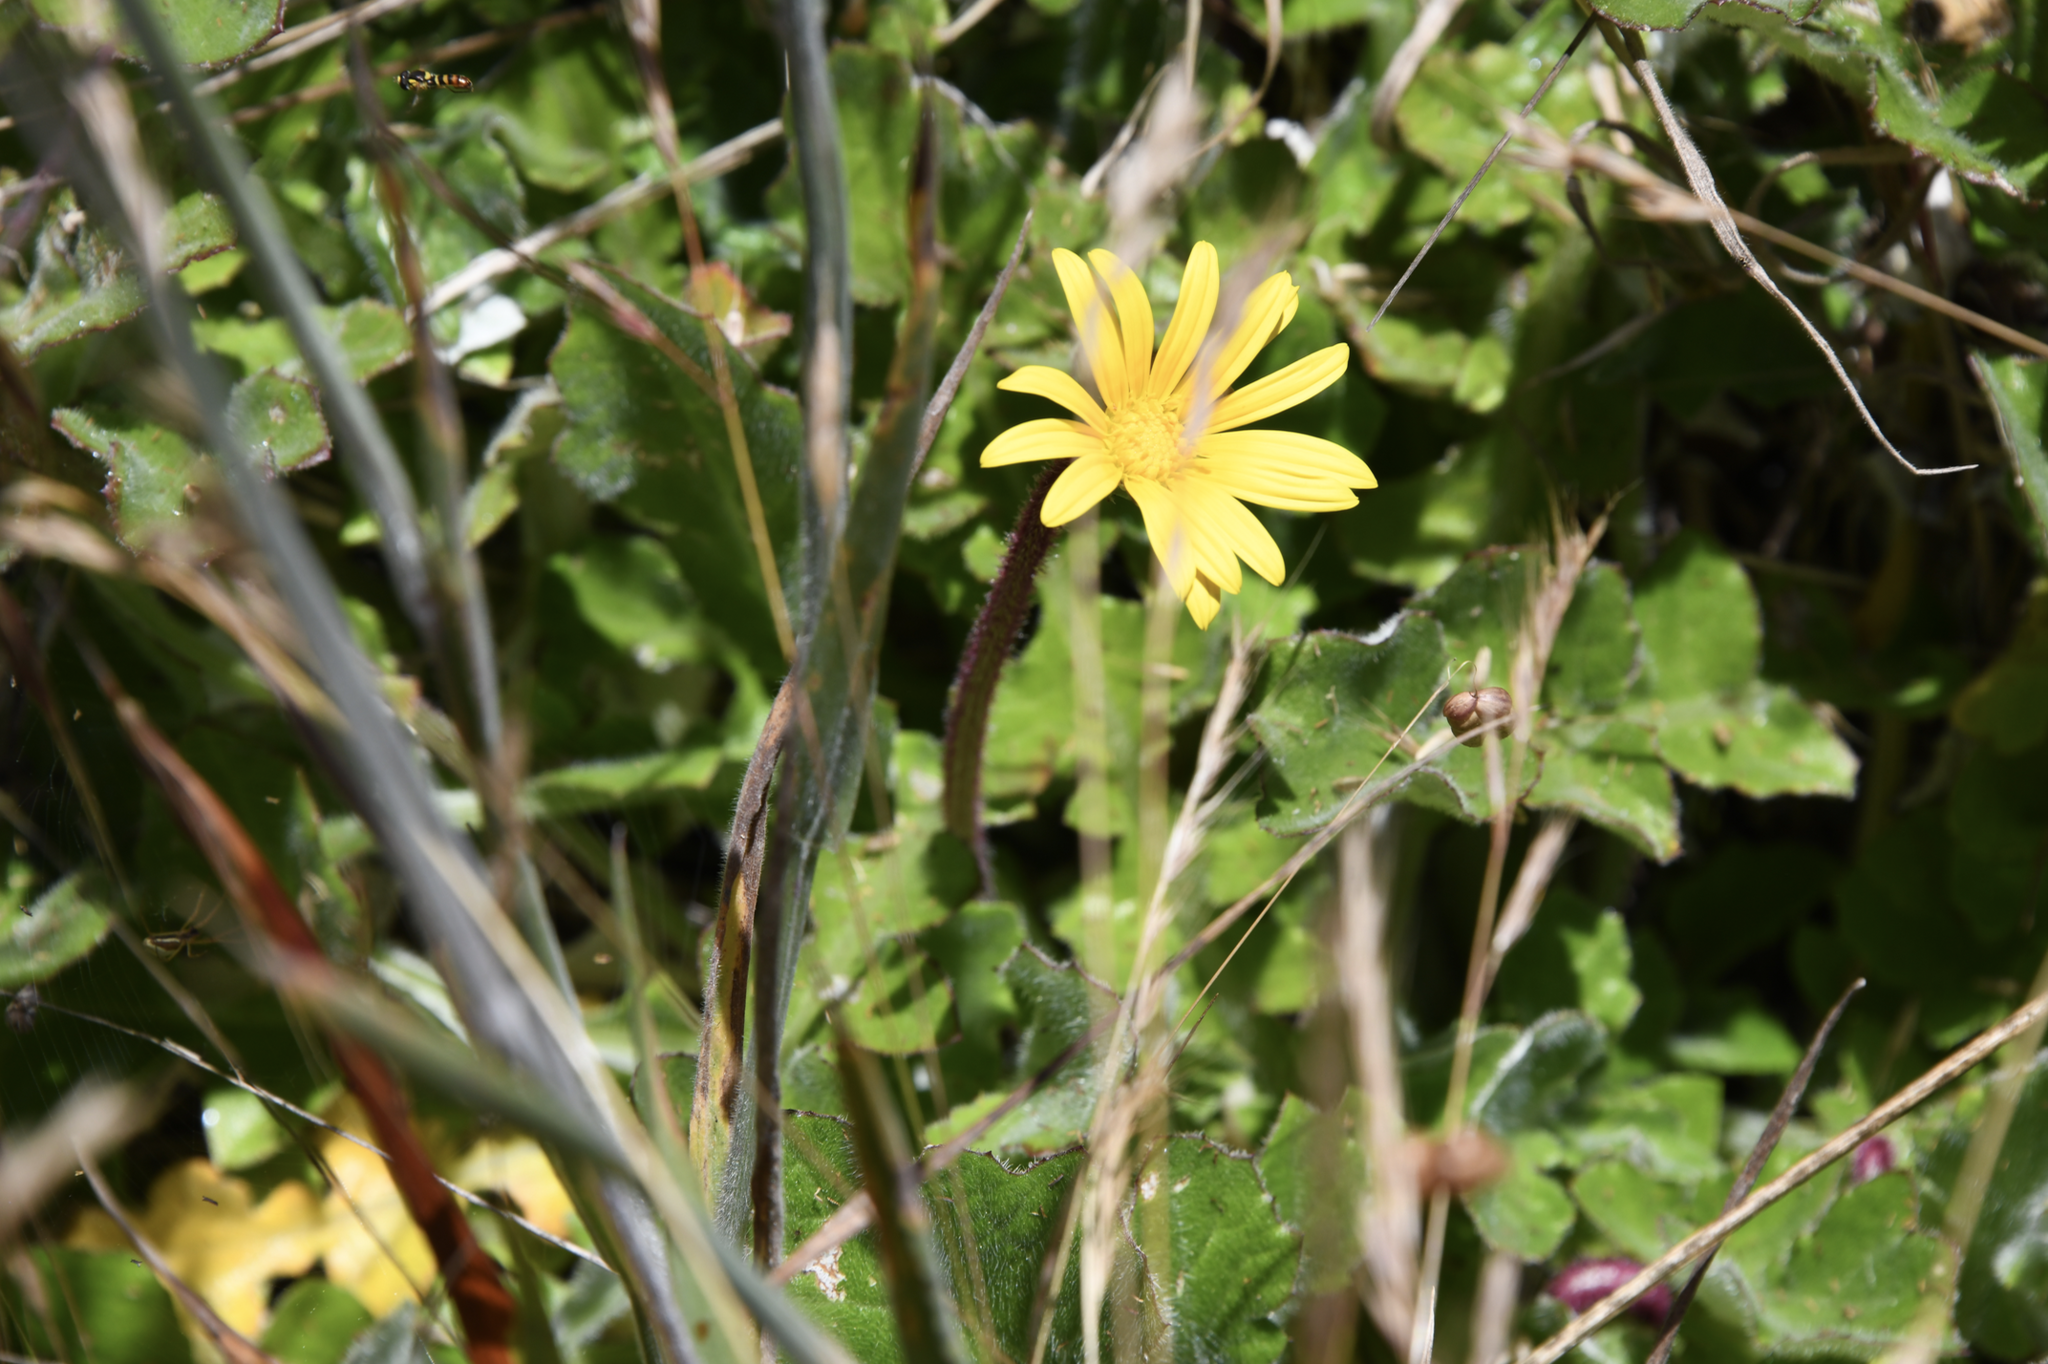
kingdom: Plantae
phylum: Tracheophyta
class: Magnoliopsida
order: Asterales
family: Asteraceae
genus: Arctotheca
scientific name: Arctotheca prostrata
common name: Capeweed
